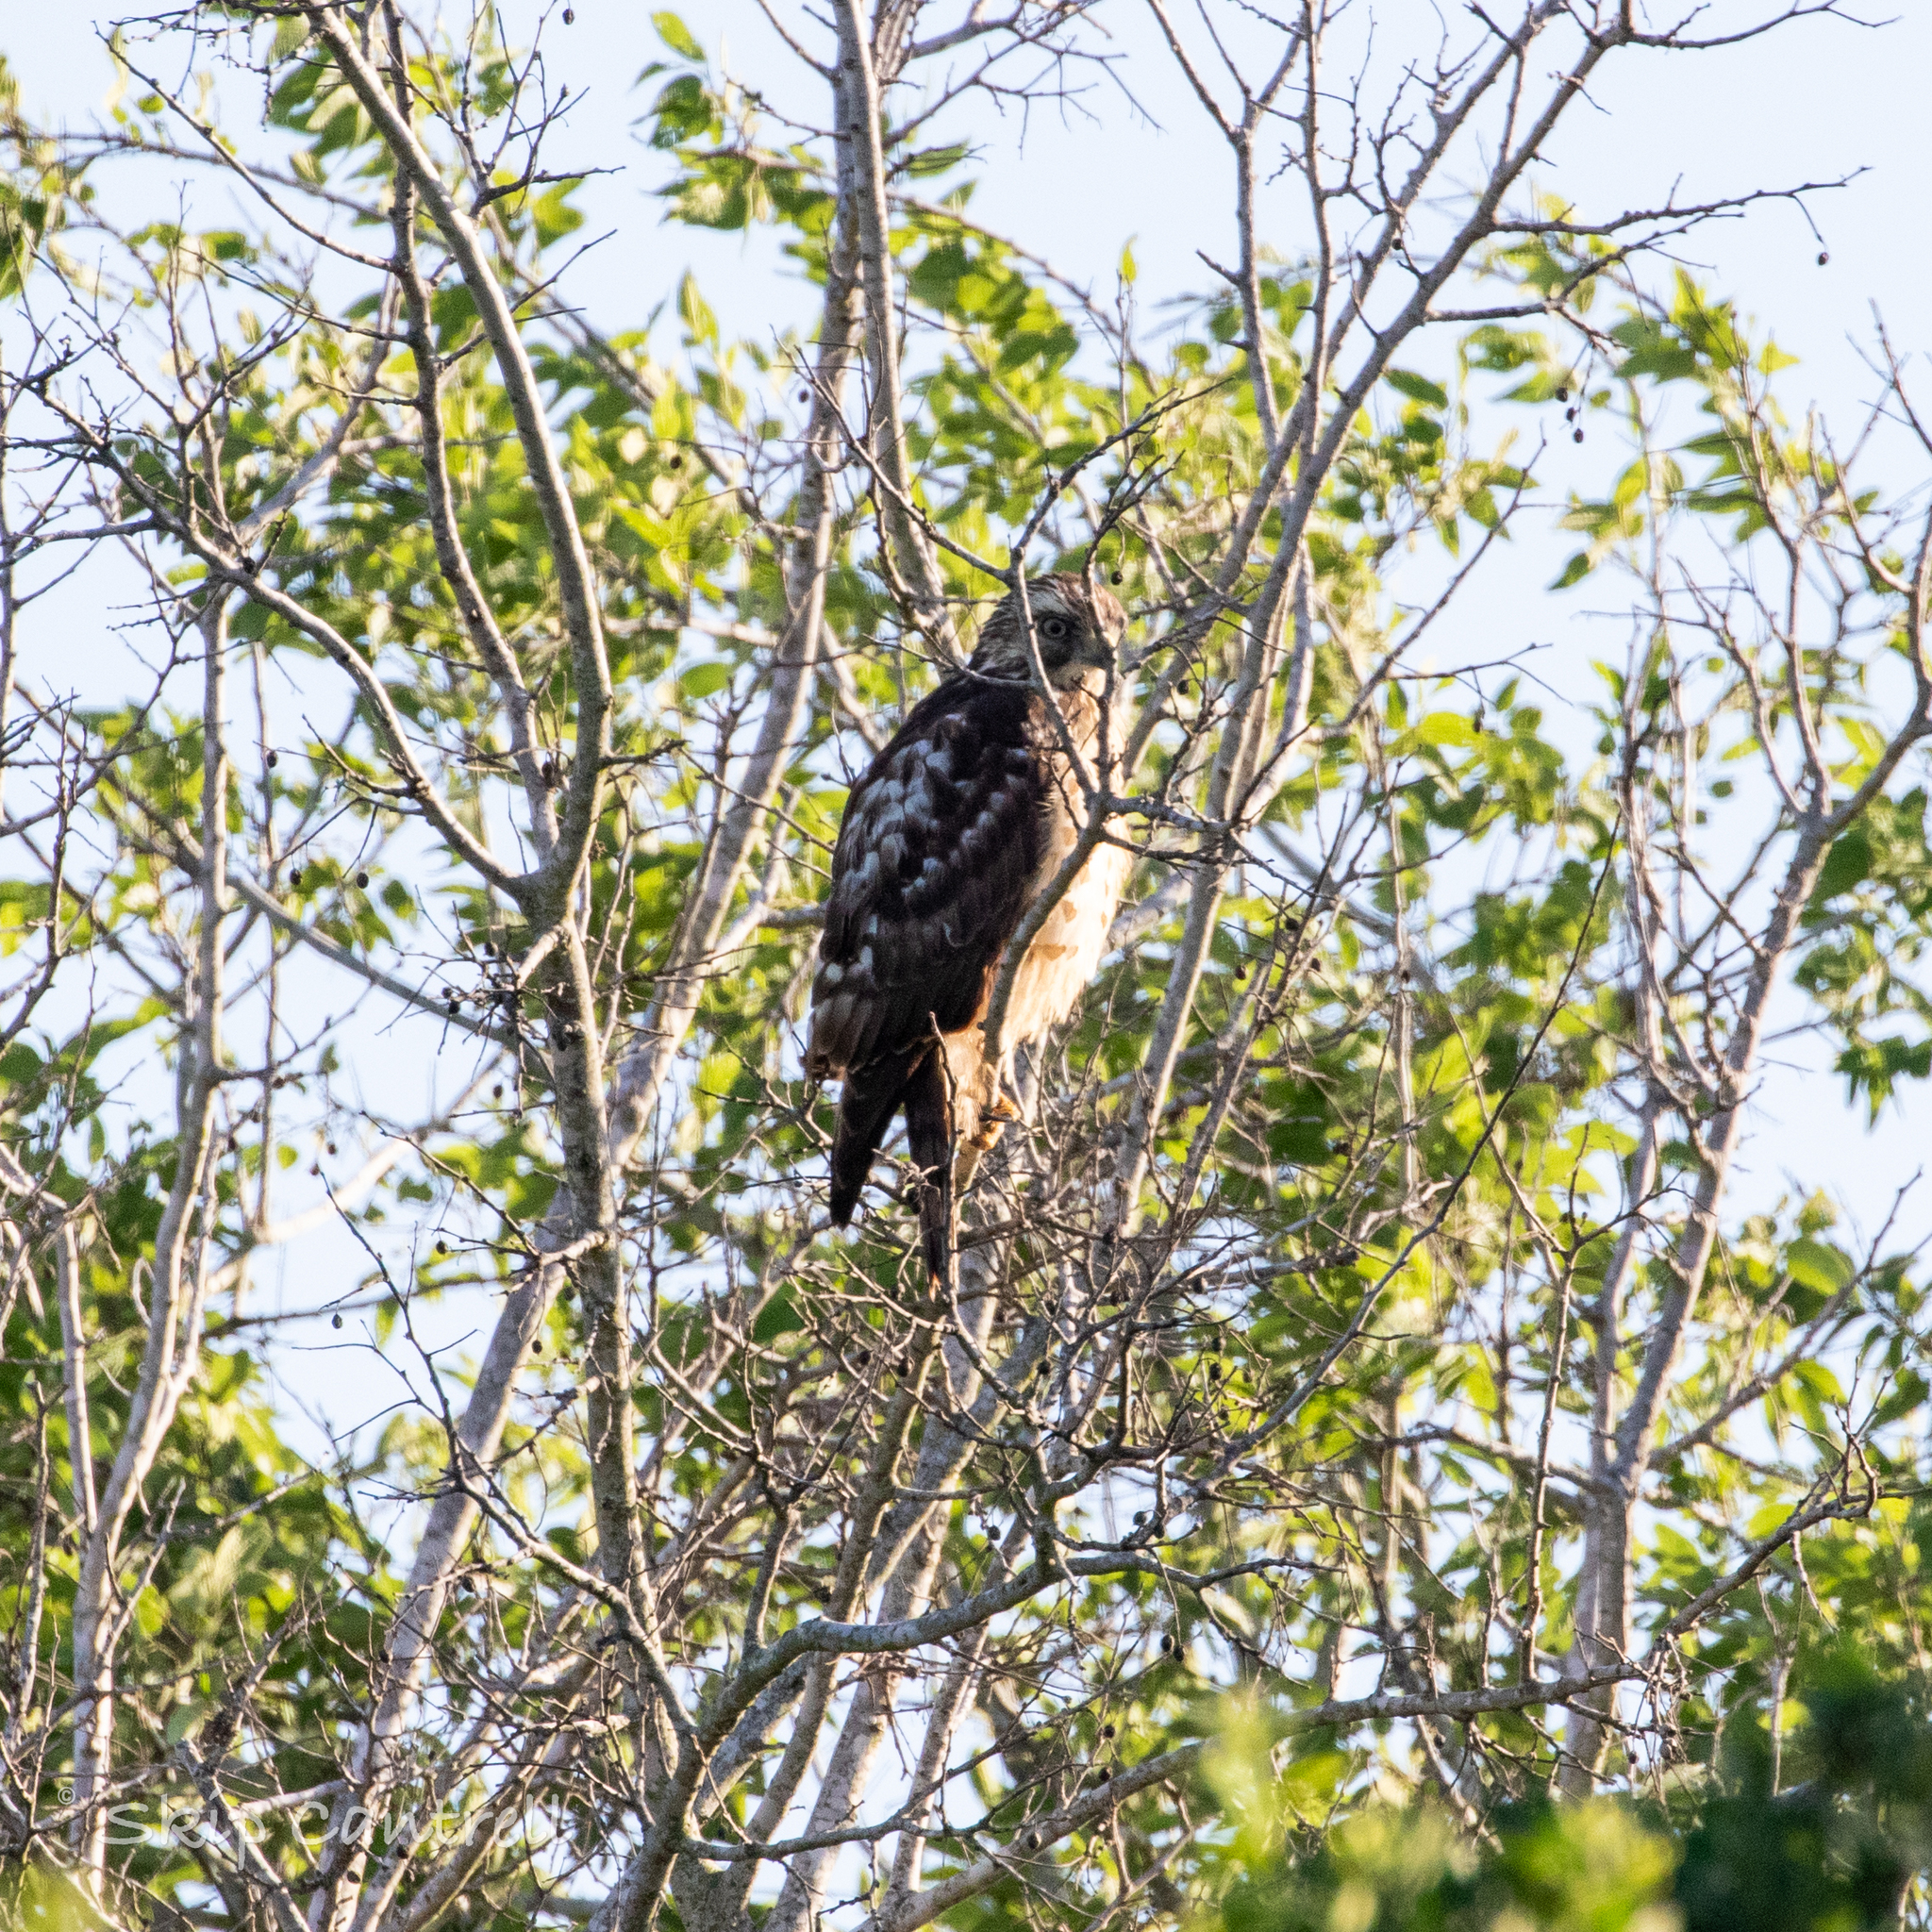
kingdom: Animalia
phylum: Chordata
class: Aves
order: Accipitriformes
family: Accipitridae
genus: Buteo
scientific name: Buteo platypterus
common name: Broad-winged hawk
